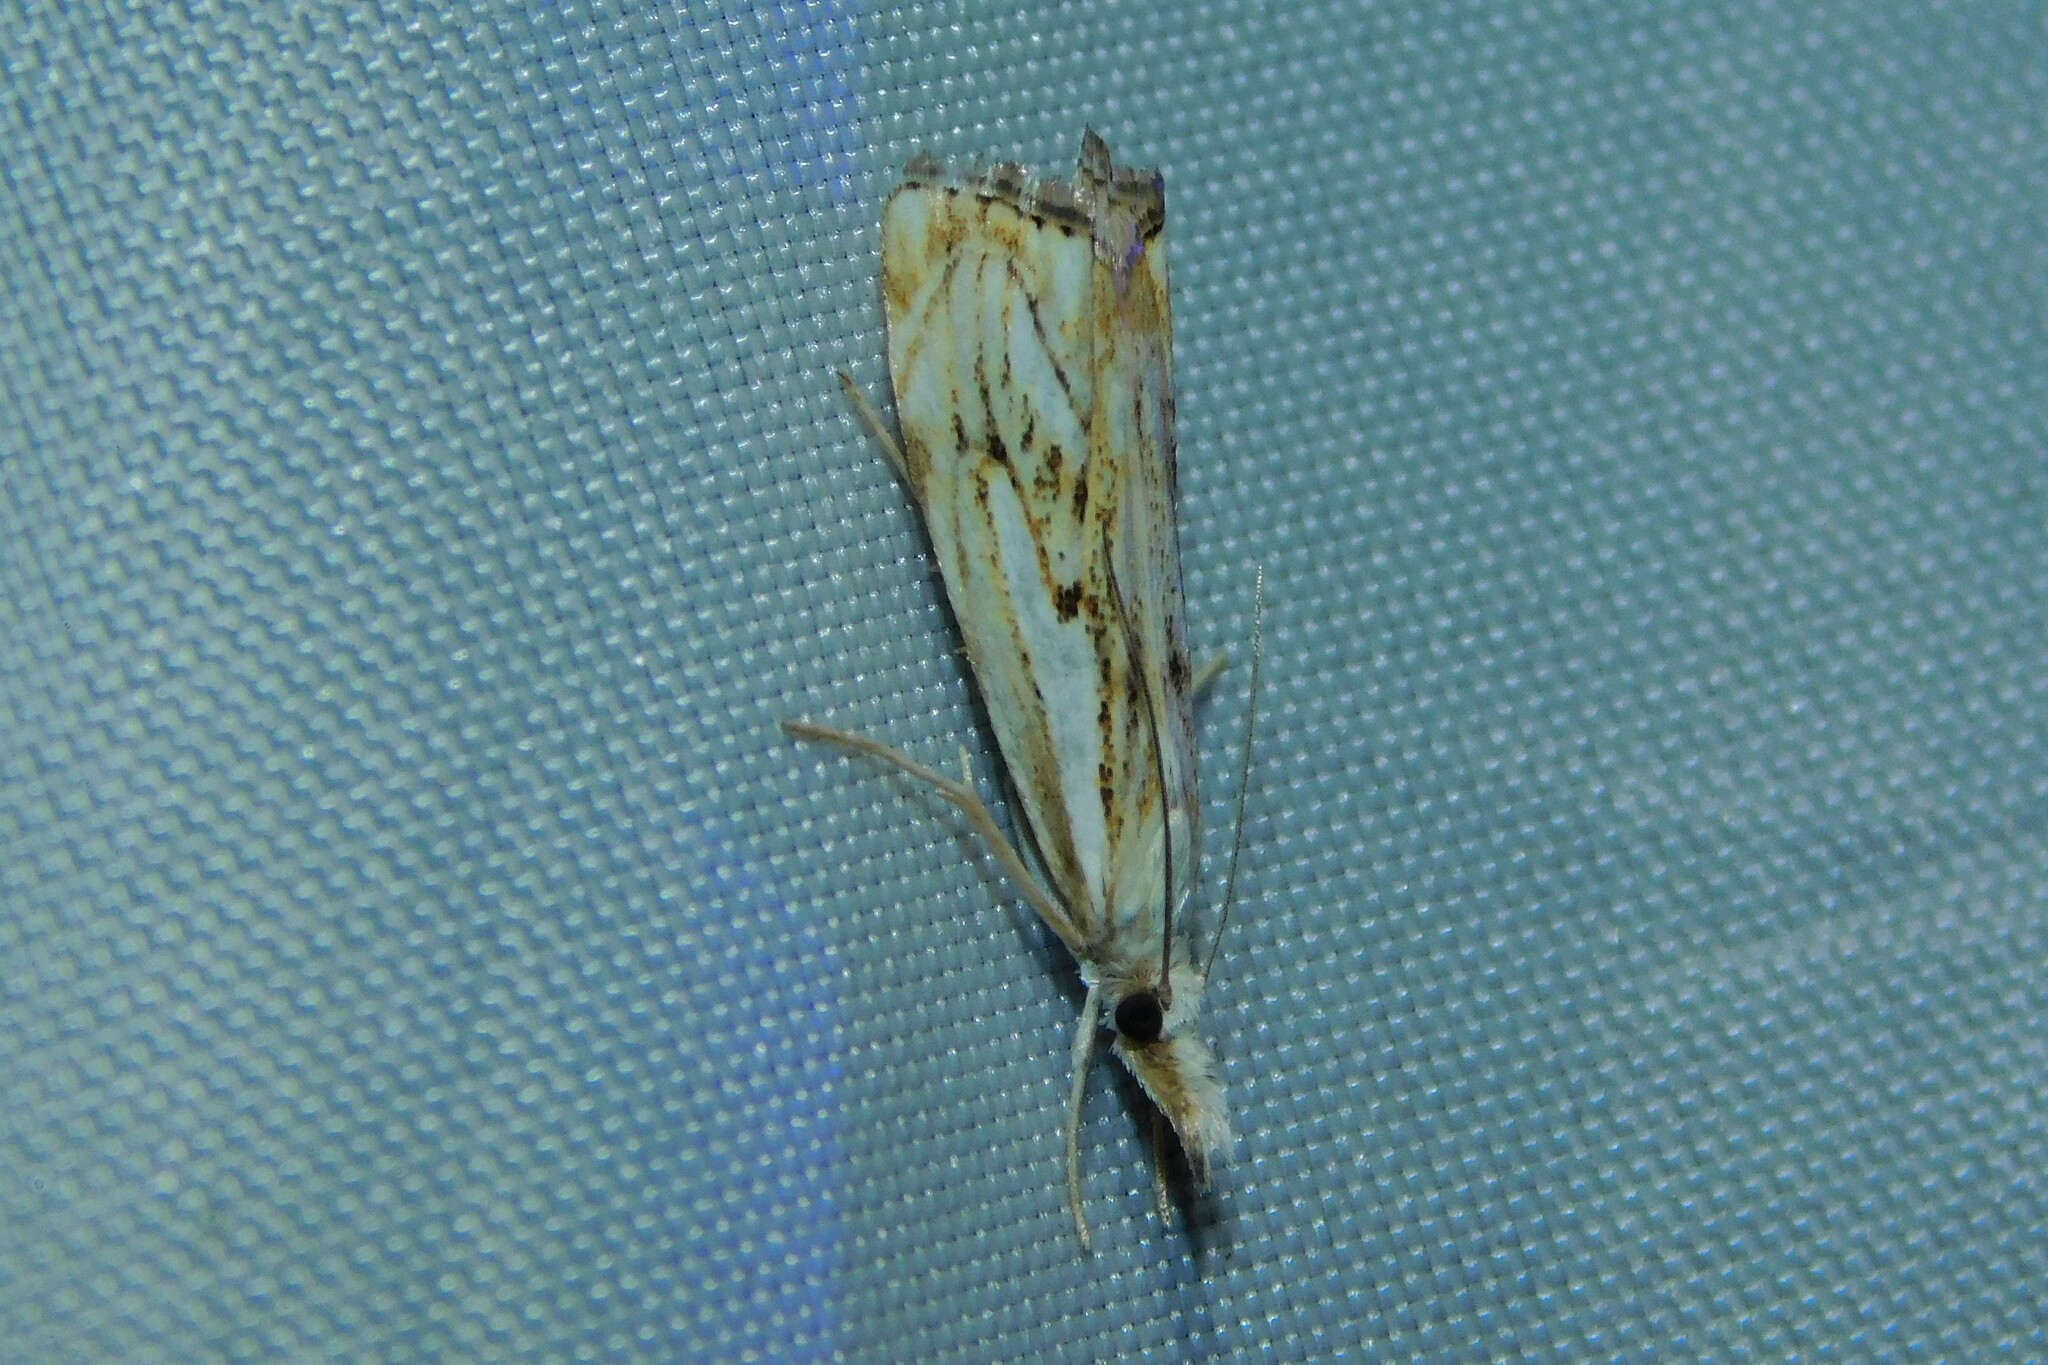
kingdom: Animalia
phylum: Arthropoda
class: Insecta
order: Lepidoptera
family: Crambidae
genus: Catoptria
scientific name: Catoptria falsella
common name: Chequered grass-veneer
